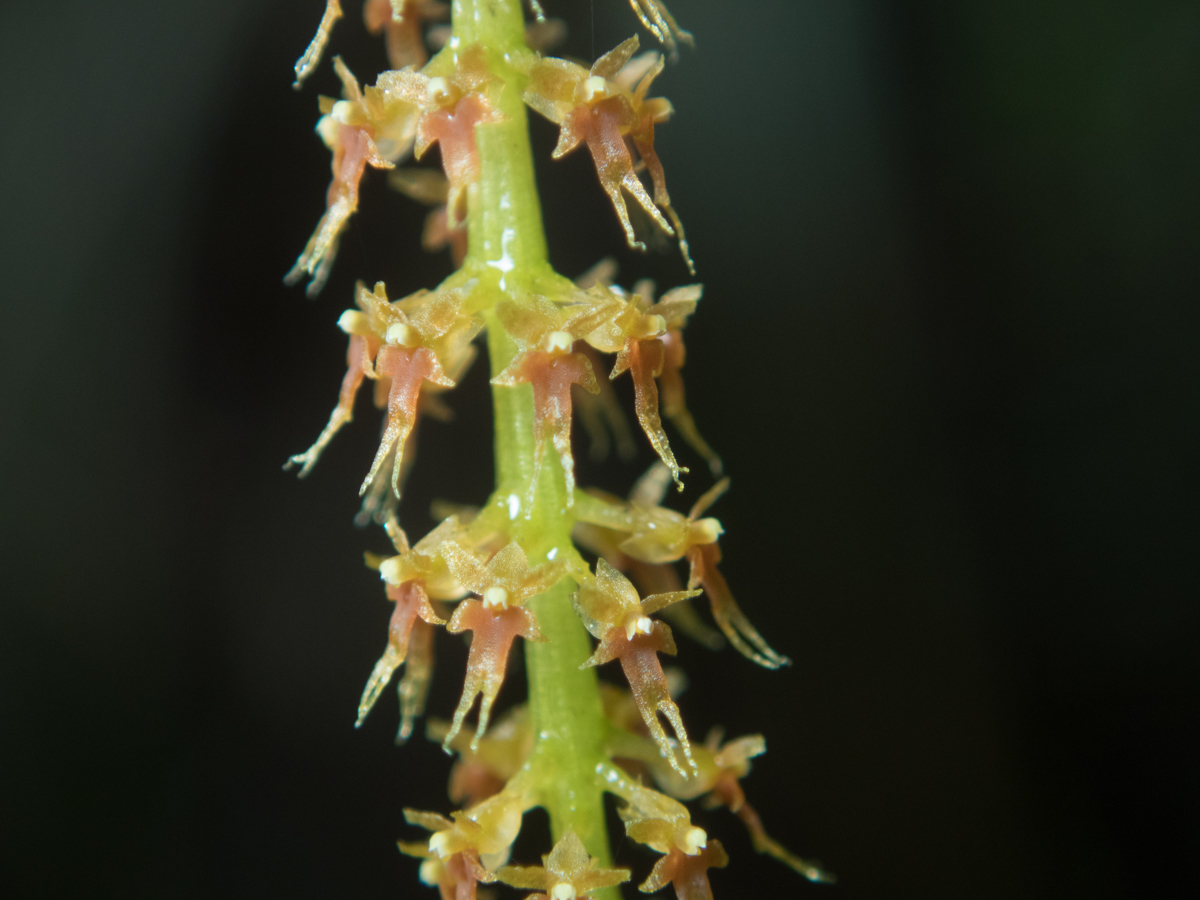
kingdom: Plantae
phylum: Tracheophyta
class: Liliopsida
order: Asparagales
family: Orchidaceae
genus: Oberonia
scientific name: Oberonia falcata
